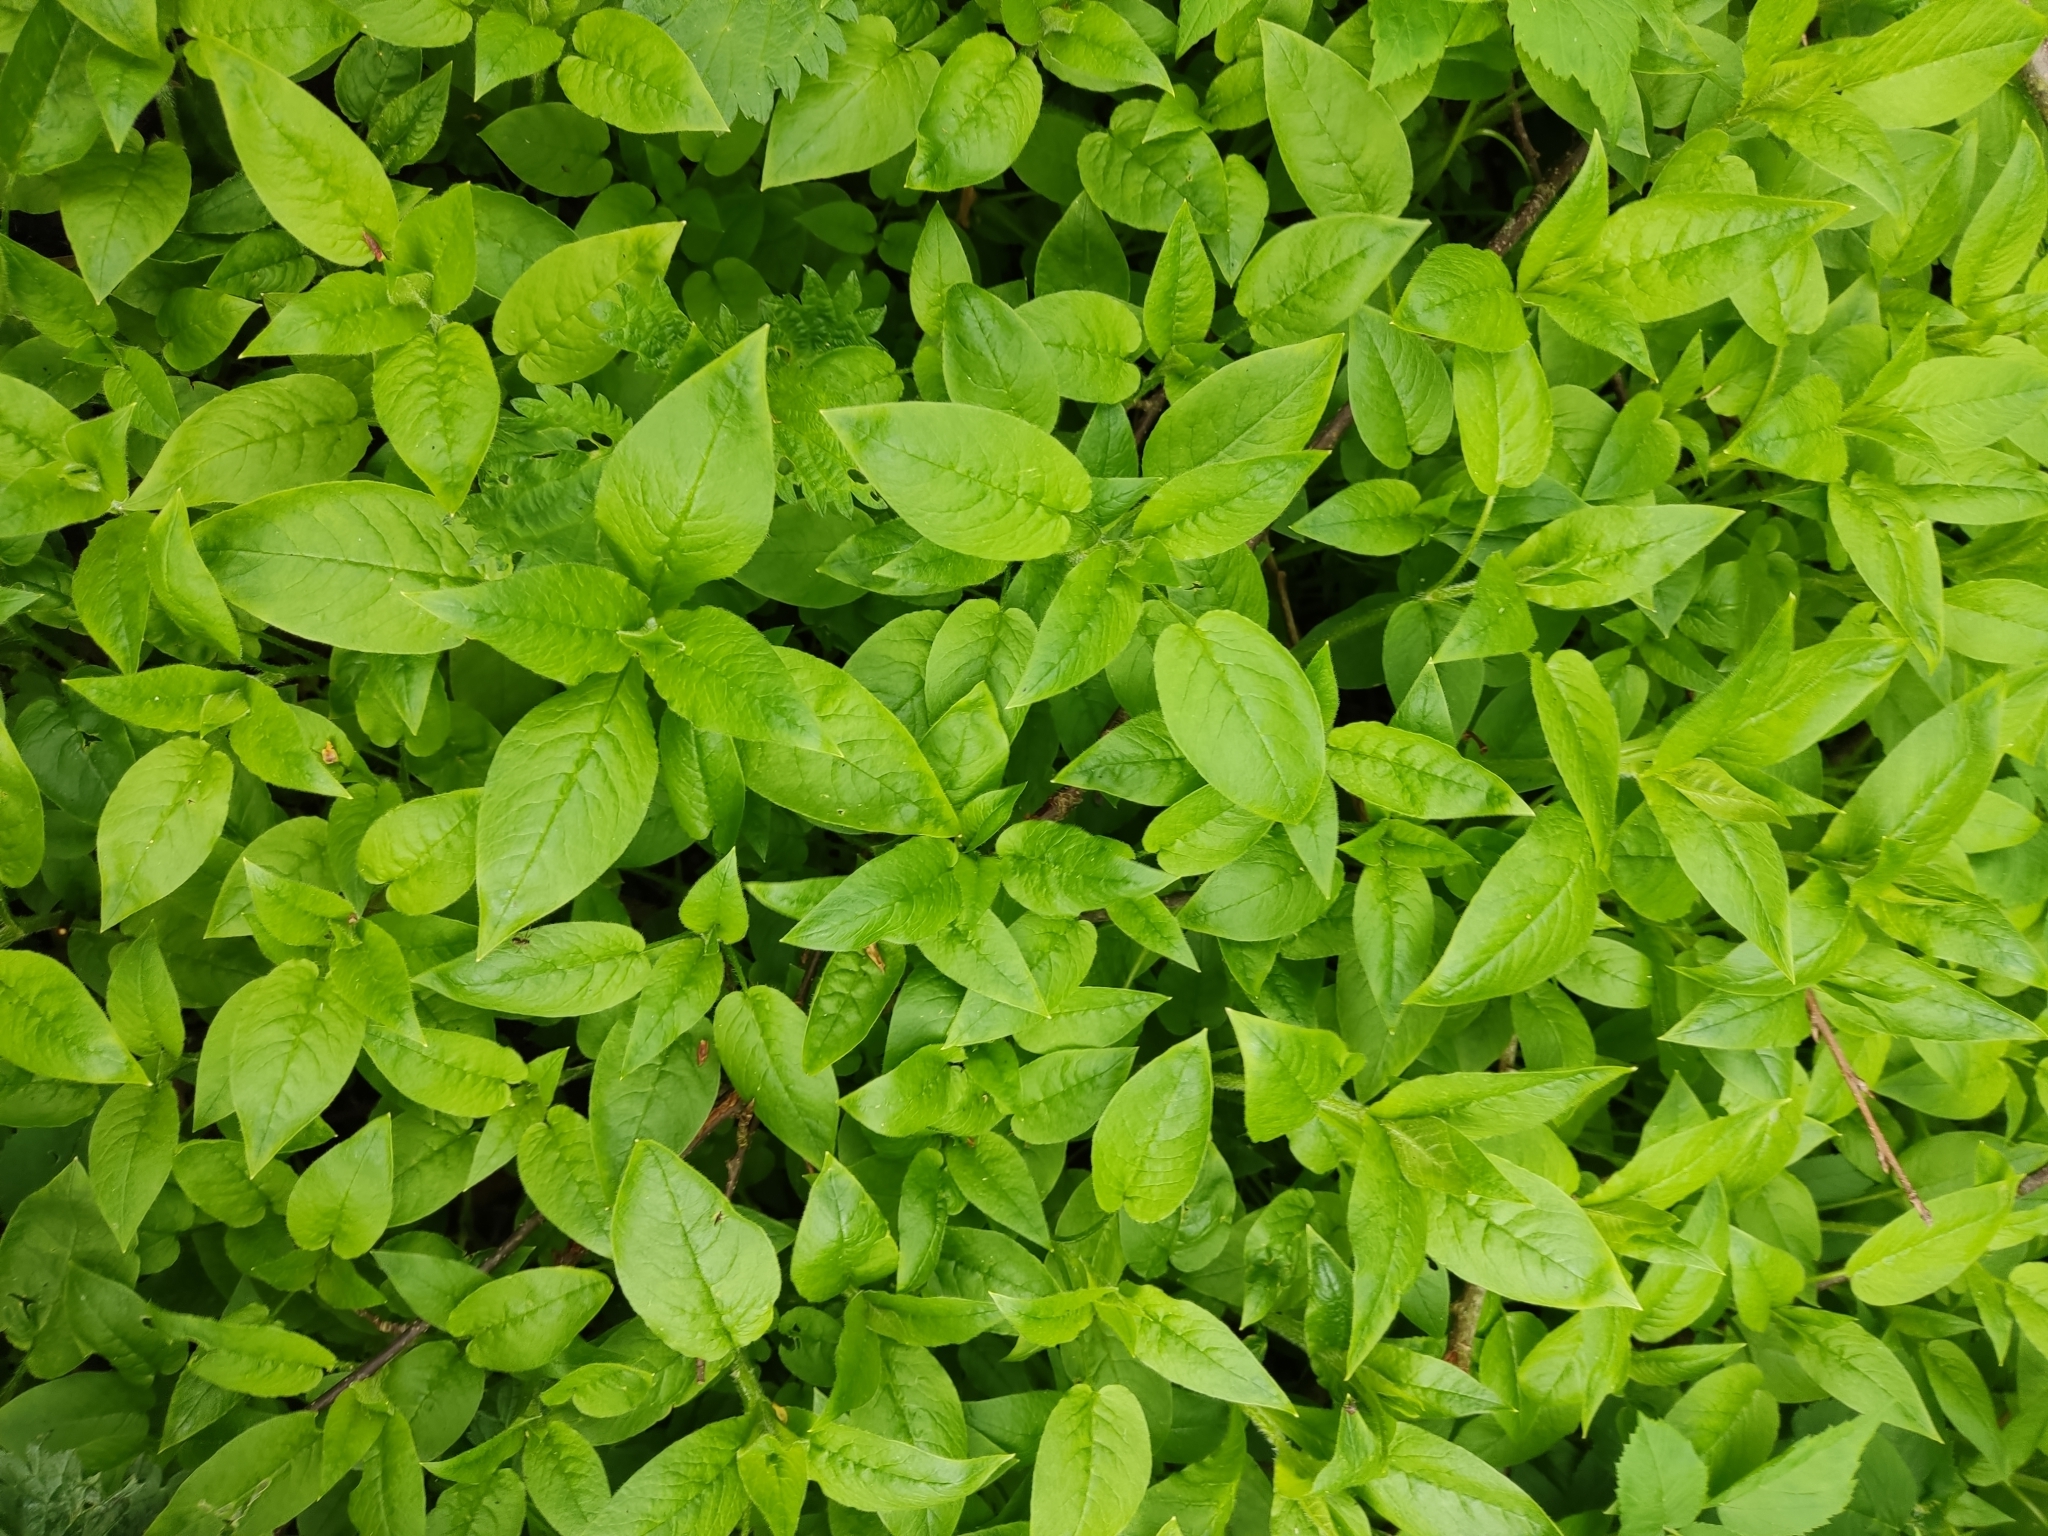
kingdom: Plantae
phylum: Tracheophyta
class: Magnoliopsida
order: Caryophyllales
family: Caryophyllaceae
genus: Stellaria
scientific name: Stellaria nemorum
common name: Wood stitchwort
